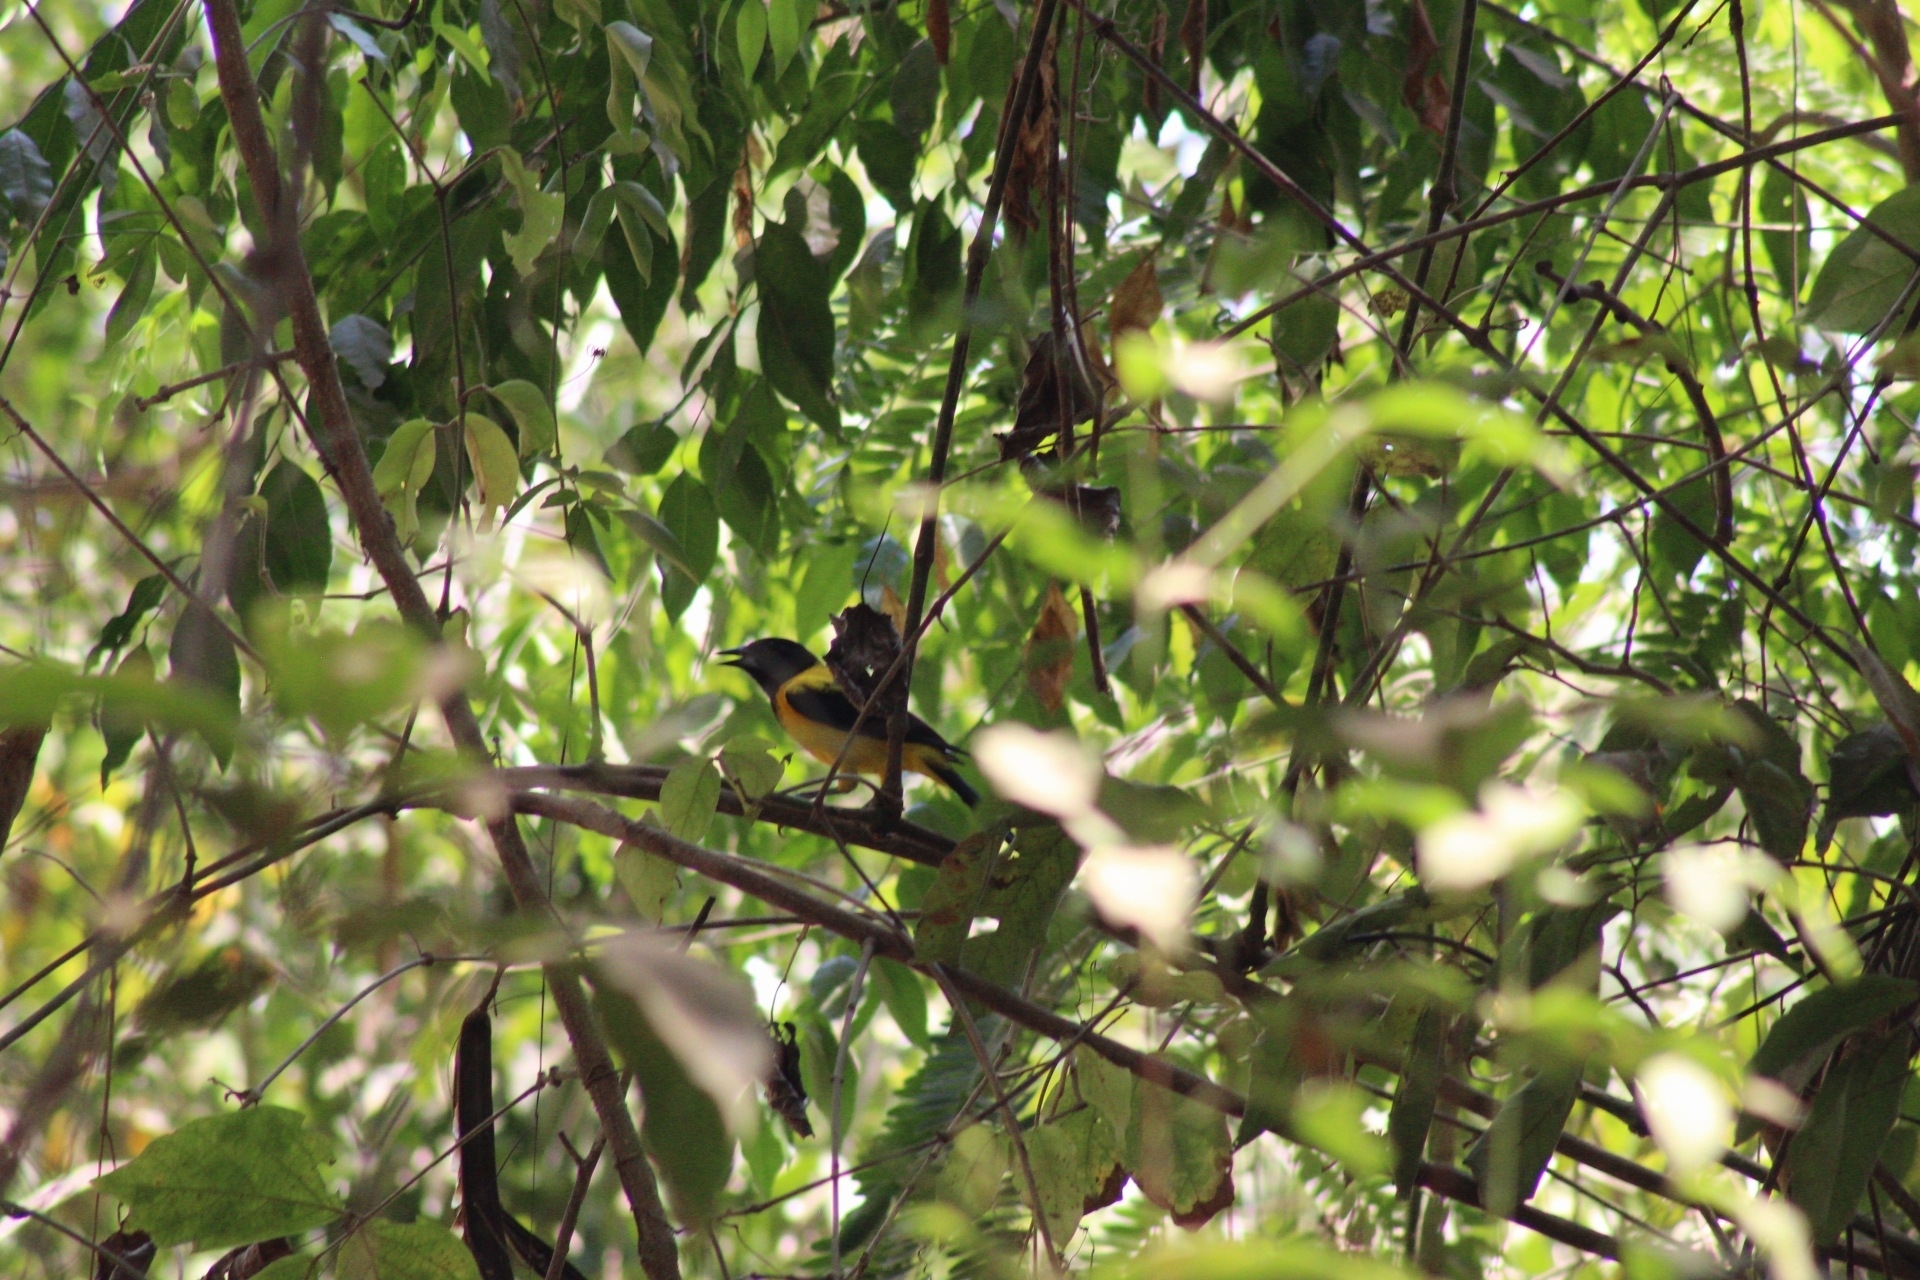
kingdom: Animalia
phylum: Chordata
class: Aves
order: Passeriformes
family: Icteridae
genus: Icterus
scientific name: Icterus graduacauda
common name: Audubon's oriole
